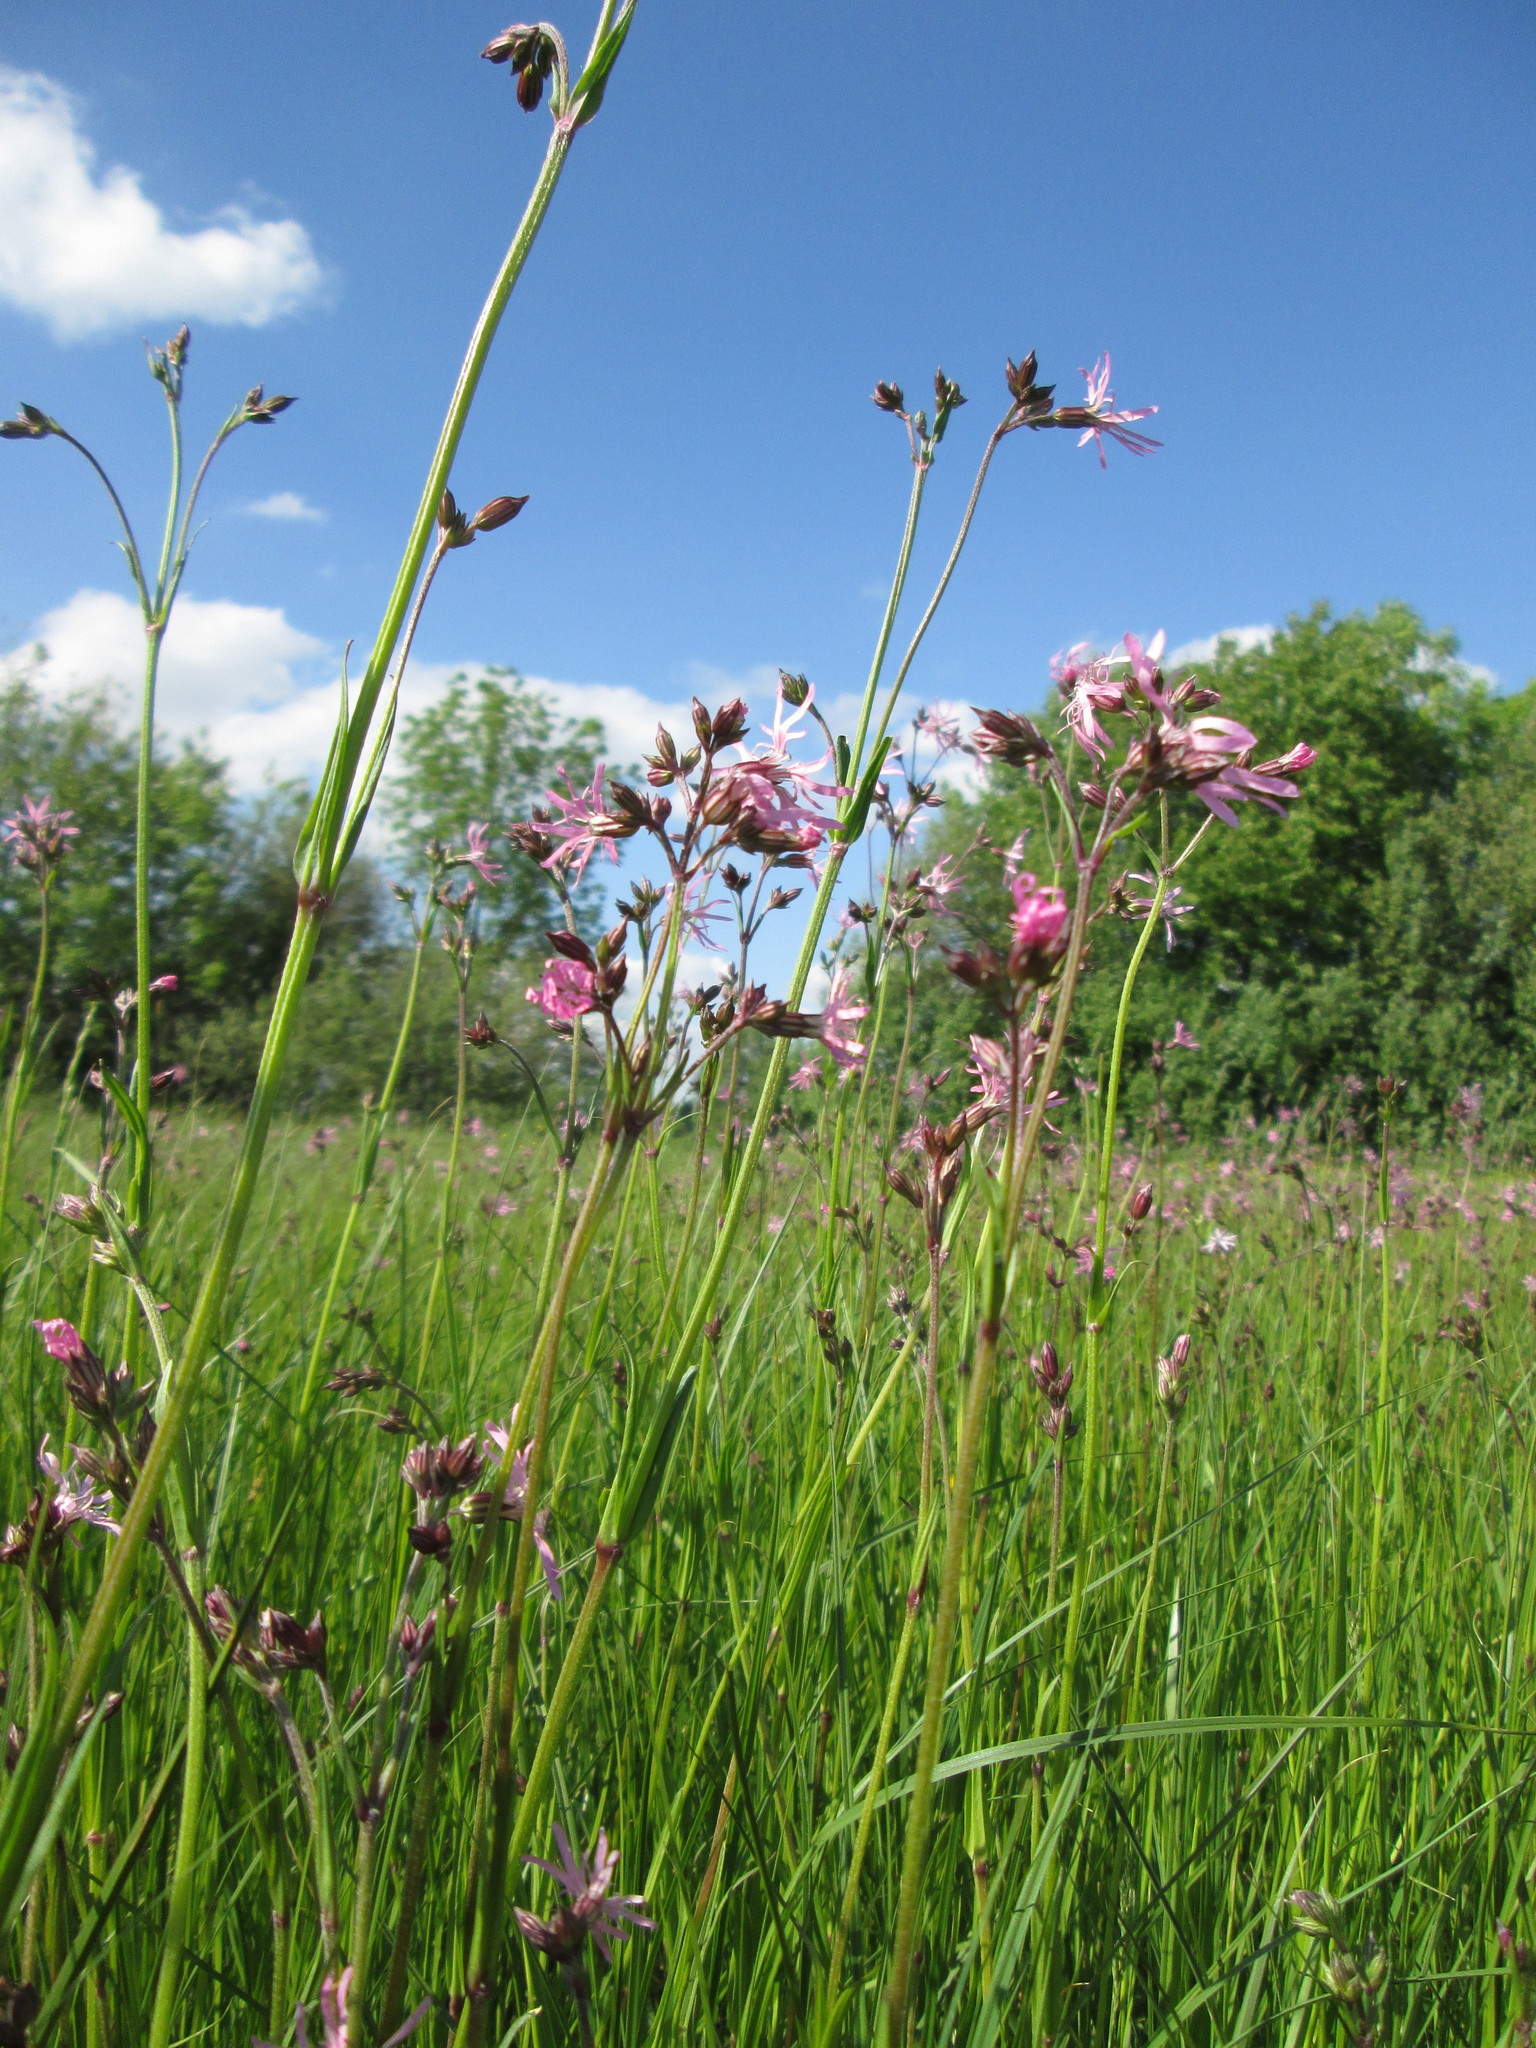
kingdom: Plantae
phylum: Tracheophyta
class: Magnoliopsida
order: Caryophyllales
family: Caryophyllaceae
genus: Silene
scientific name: Silene flos-cuculi
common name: Ragged-robin
